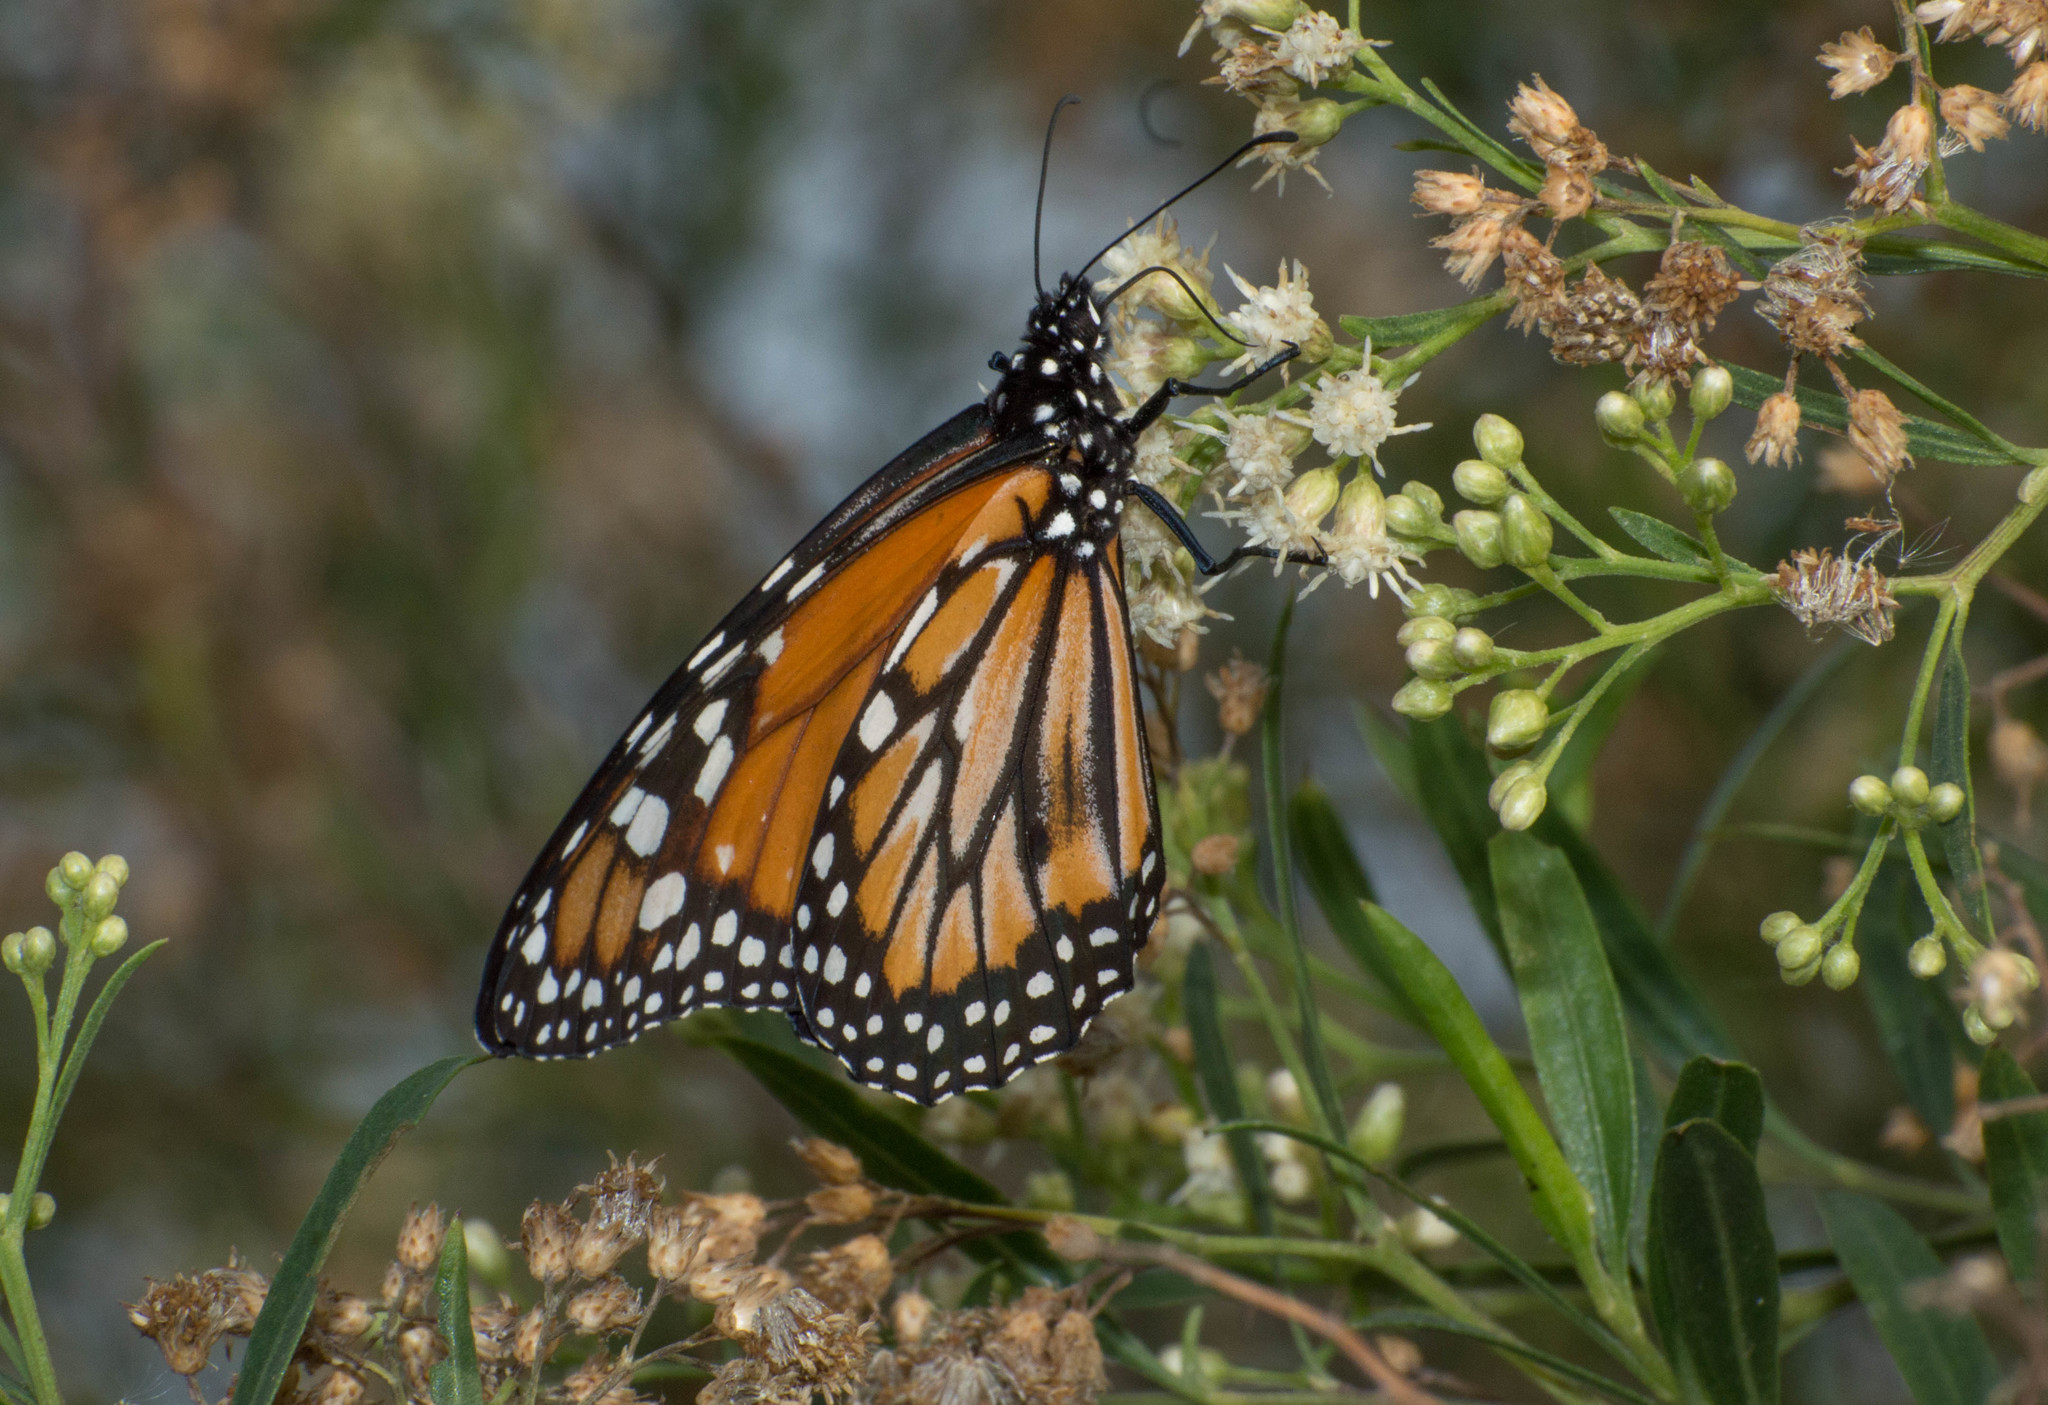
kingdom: Animalia
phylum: Arthropoda
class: Insecta
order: Lepidoptera
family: Nymphalidae
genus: Danaus
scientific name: Danaus erippus
